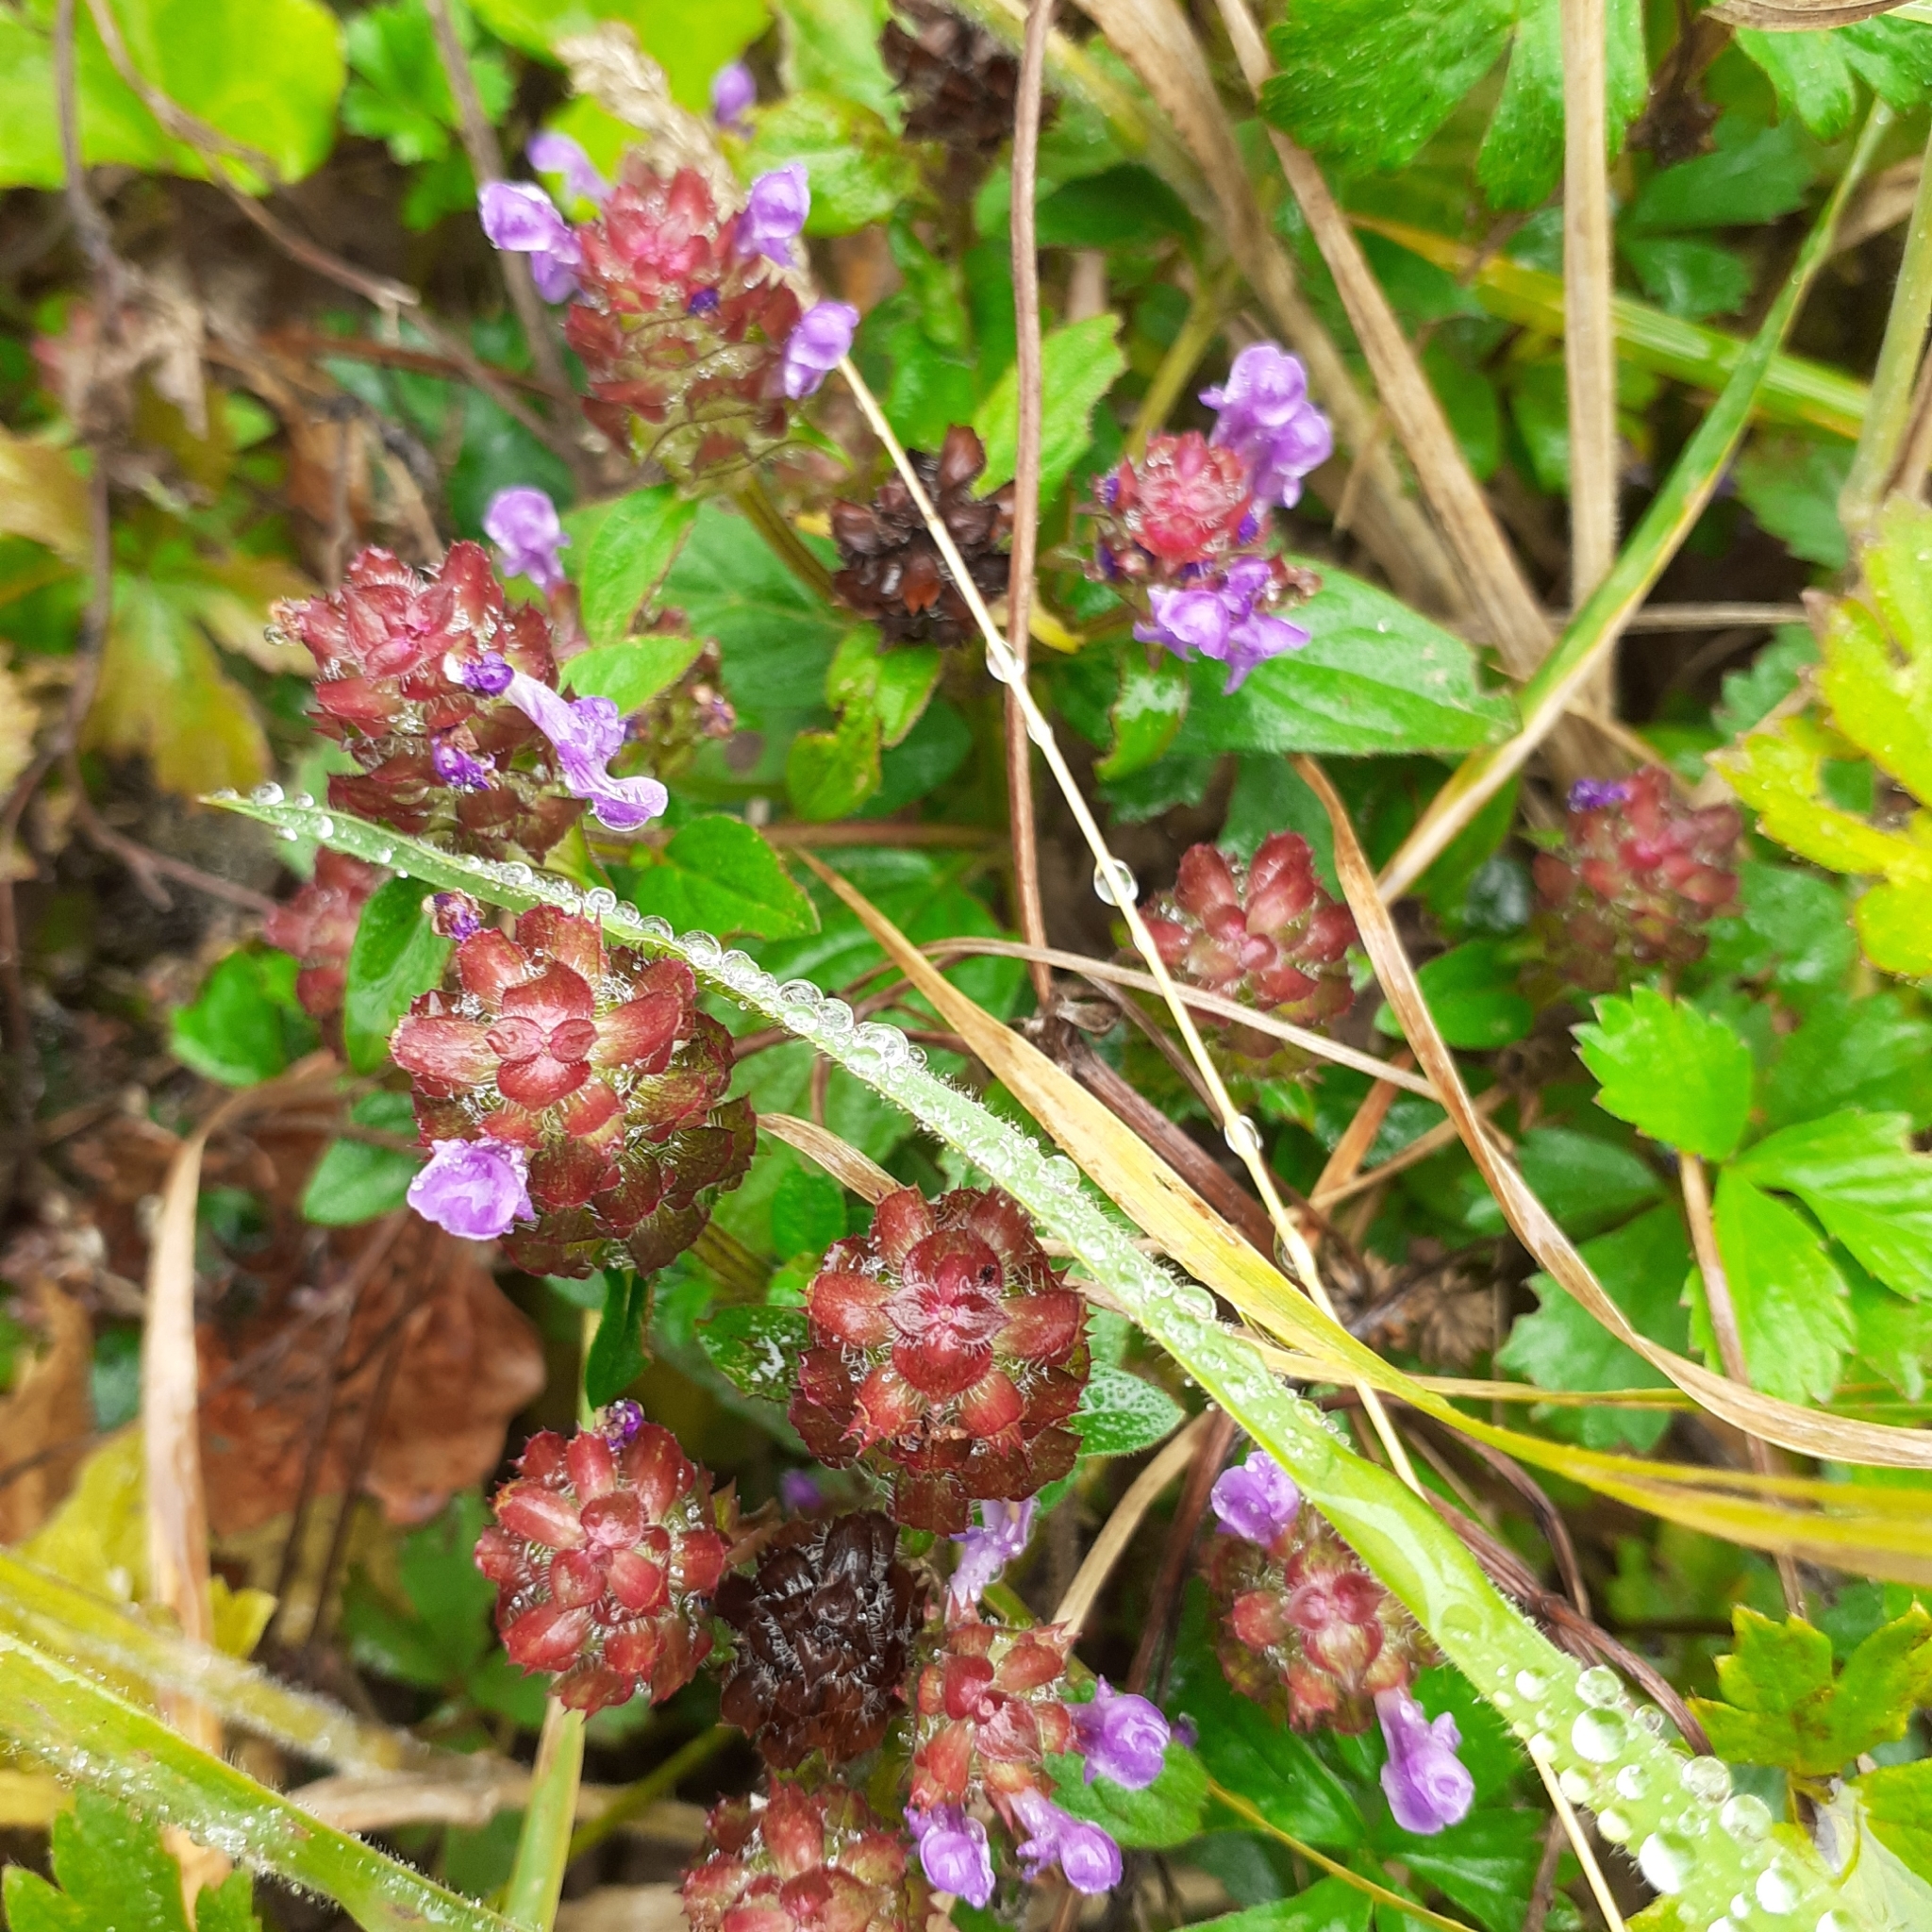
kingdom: Plantae
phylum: Tracheophyta
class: Magnoliopsida
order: Lamiales
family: Lamiaceae
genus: Prunella
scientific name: Prunella vulgaris
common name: Heal-all
